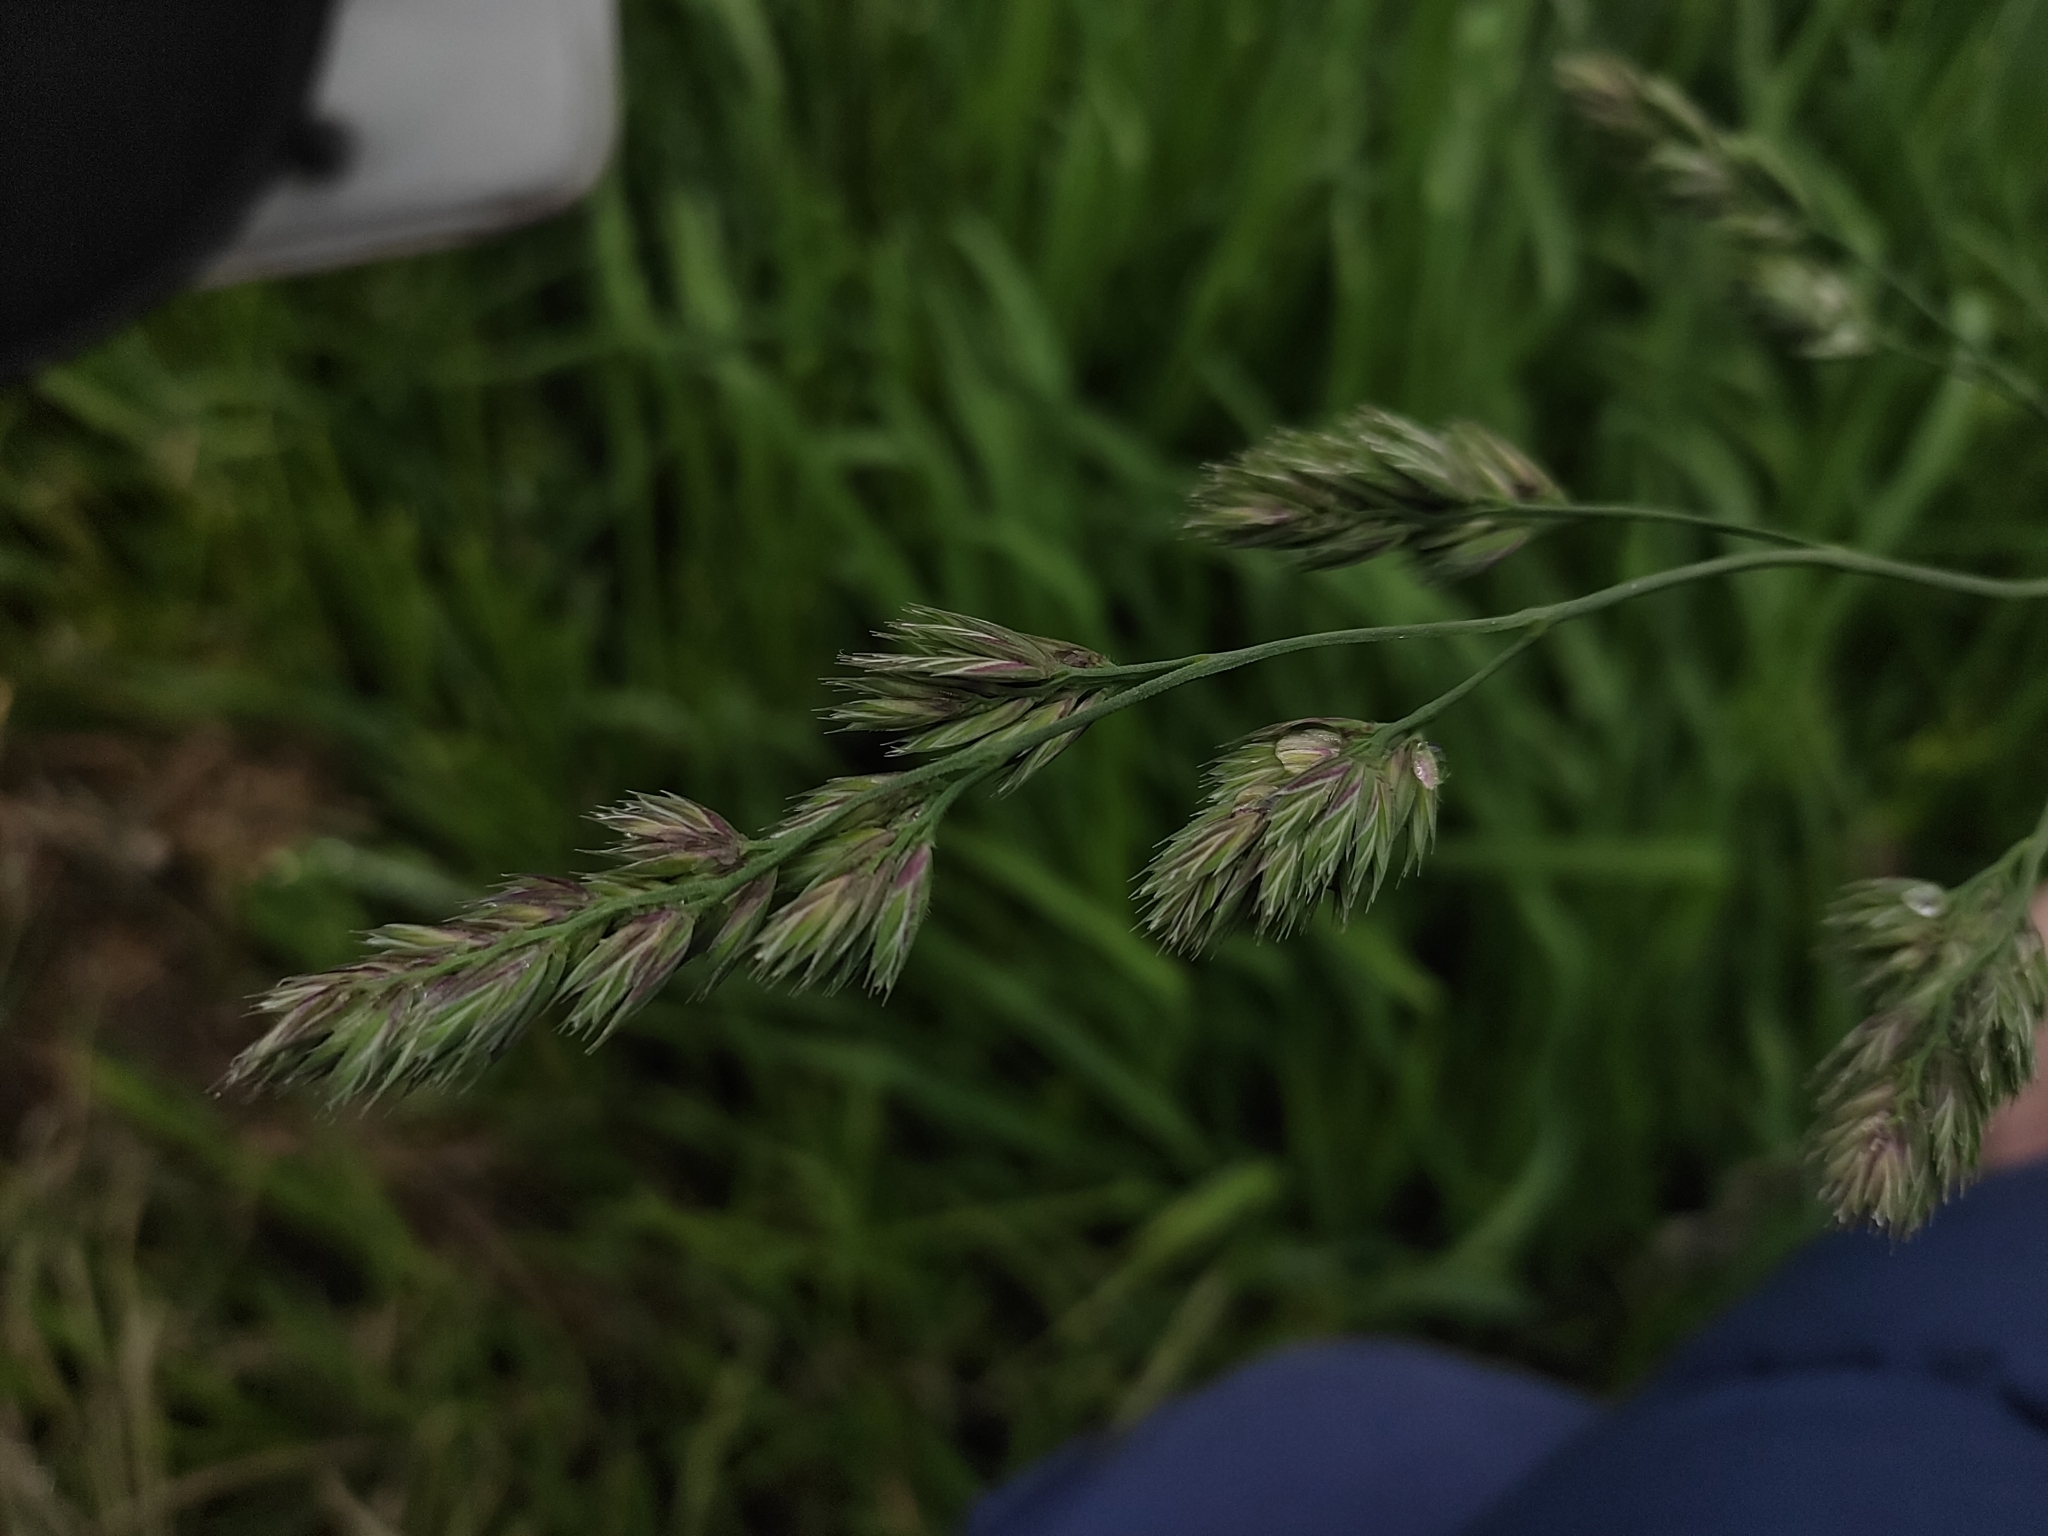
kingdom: Plantae
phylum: Tracheophyta
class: Liliopsida
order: Poales
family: Poaceae
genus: Dactylis
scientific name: Dactylis glomerata
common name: Orchardgrass
